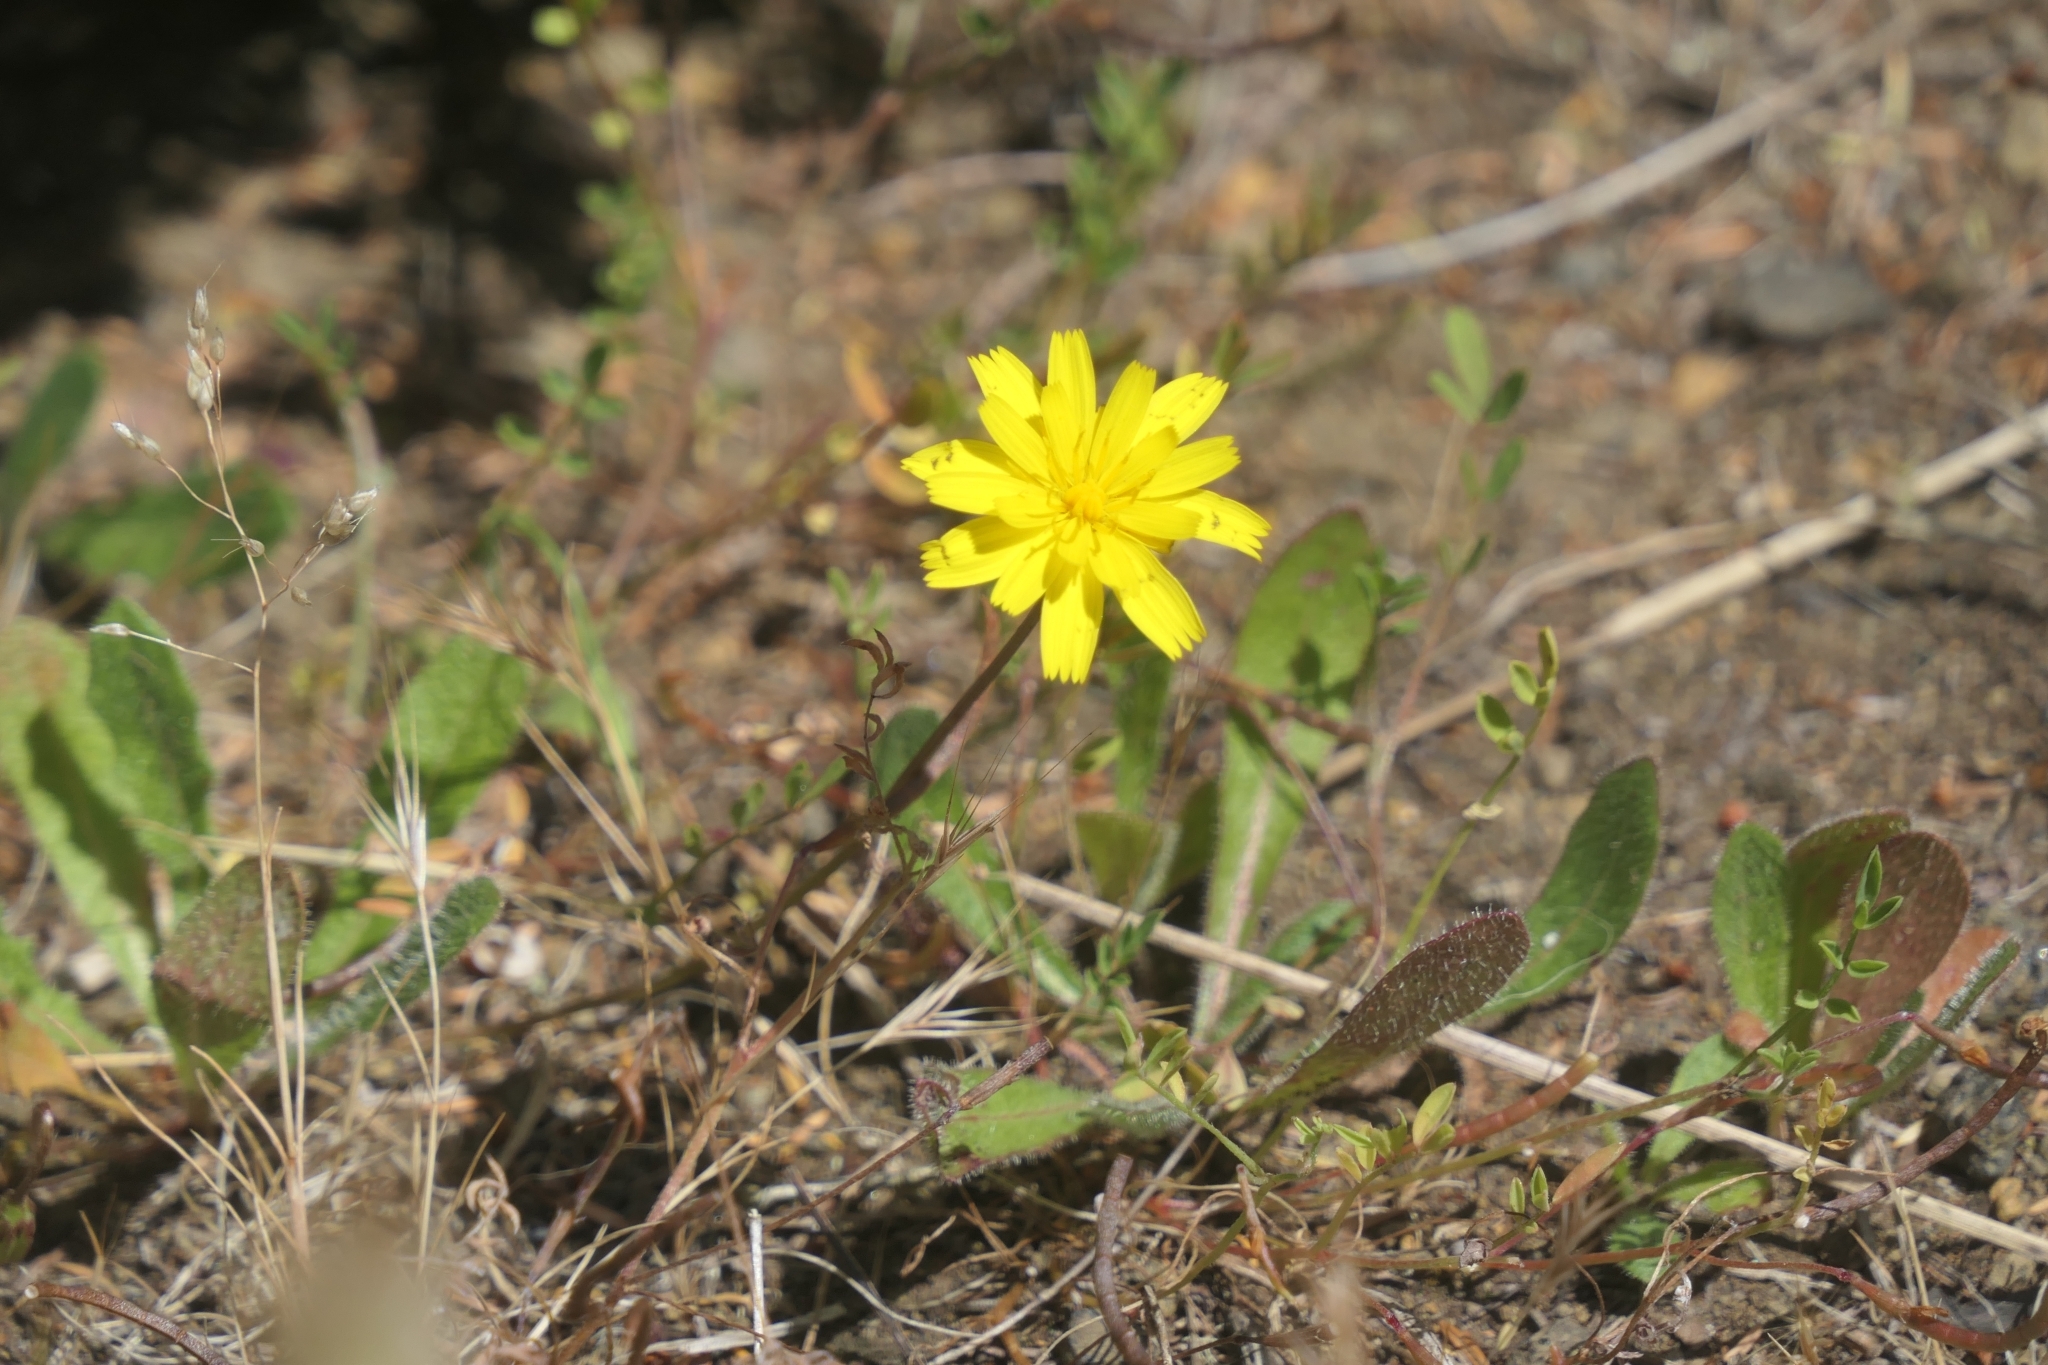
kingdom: Plantae
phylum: Tracheophyta
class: Magnoliopsida
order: Asterales
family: Asteraceae
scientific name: Asteraceae
